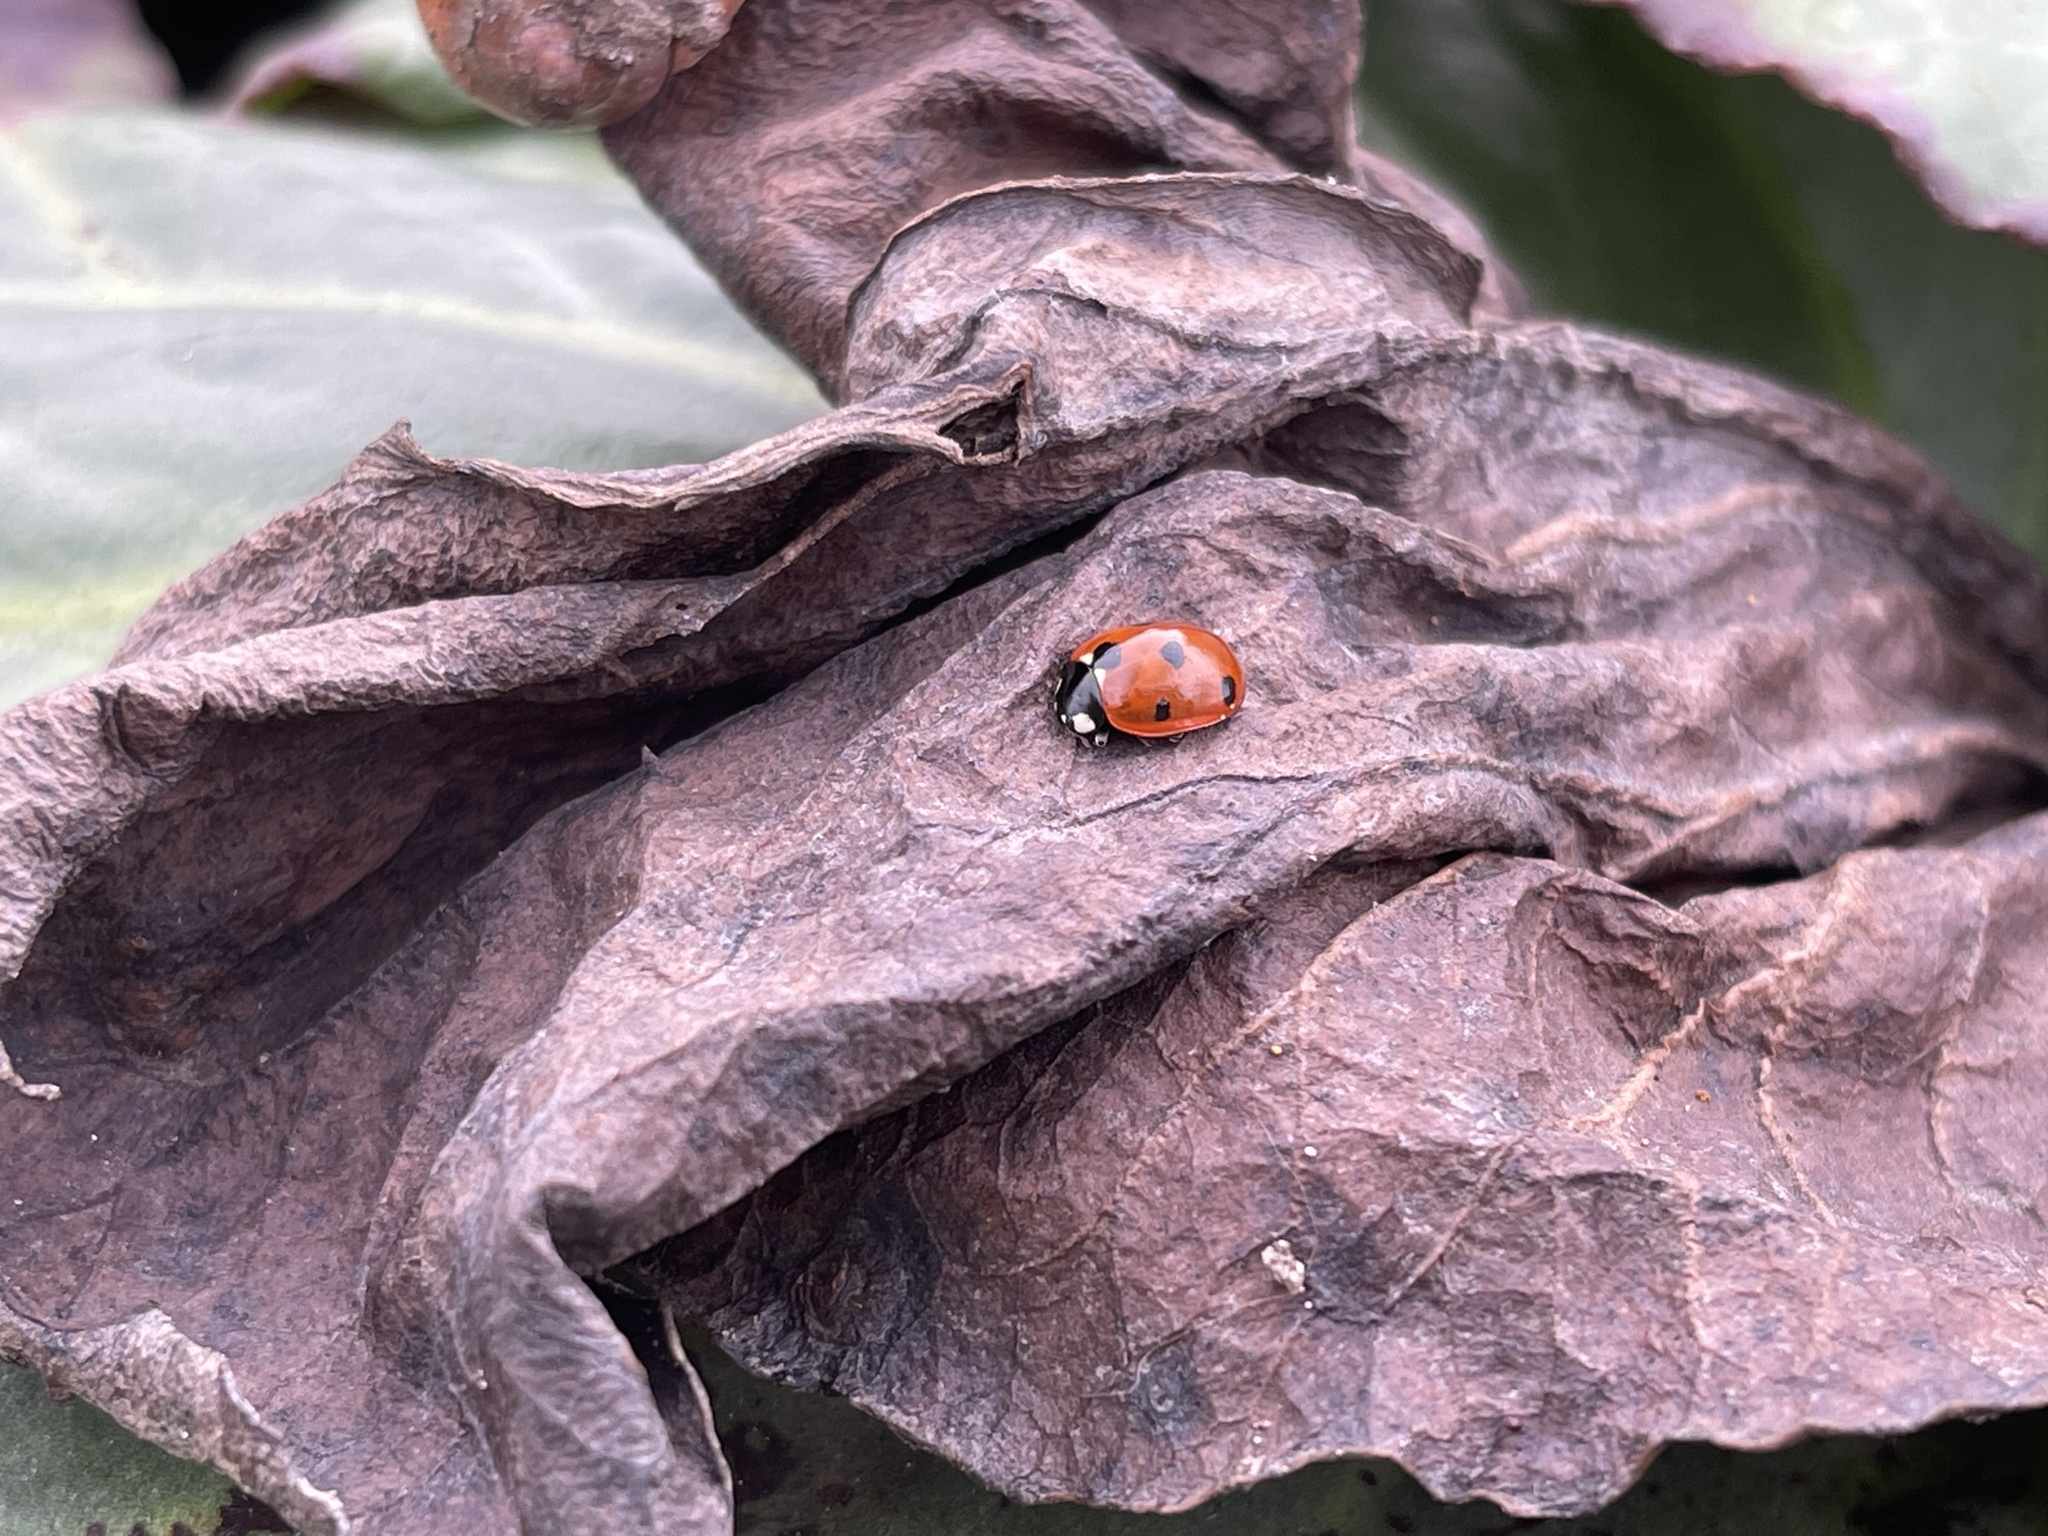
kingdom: Animalia
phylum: Arthropoda
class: Insecta
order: Coleoptera
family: Coccinellidae
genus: Coccinella
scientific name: Coccinella septempunctata
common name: Sevenspotted lady beetle
